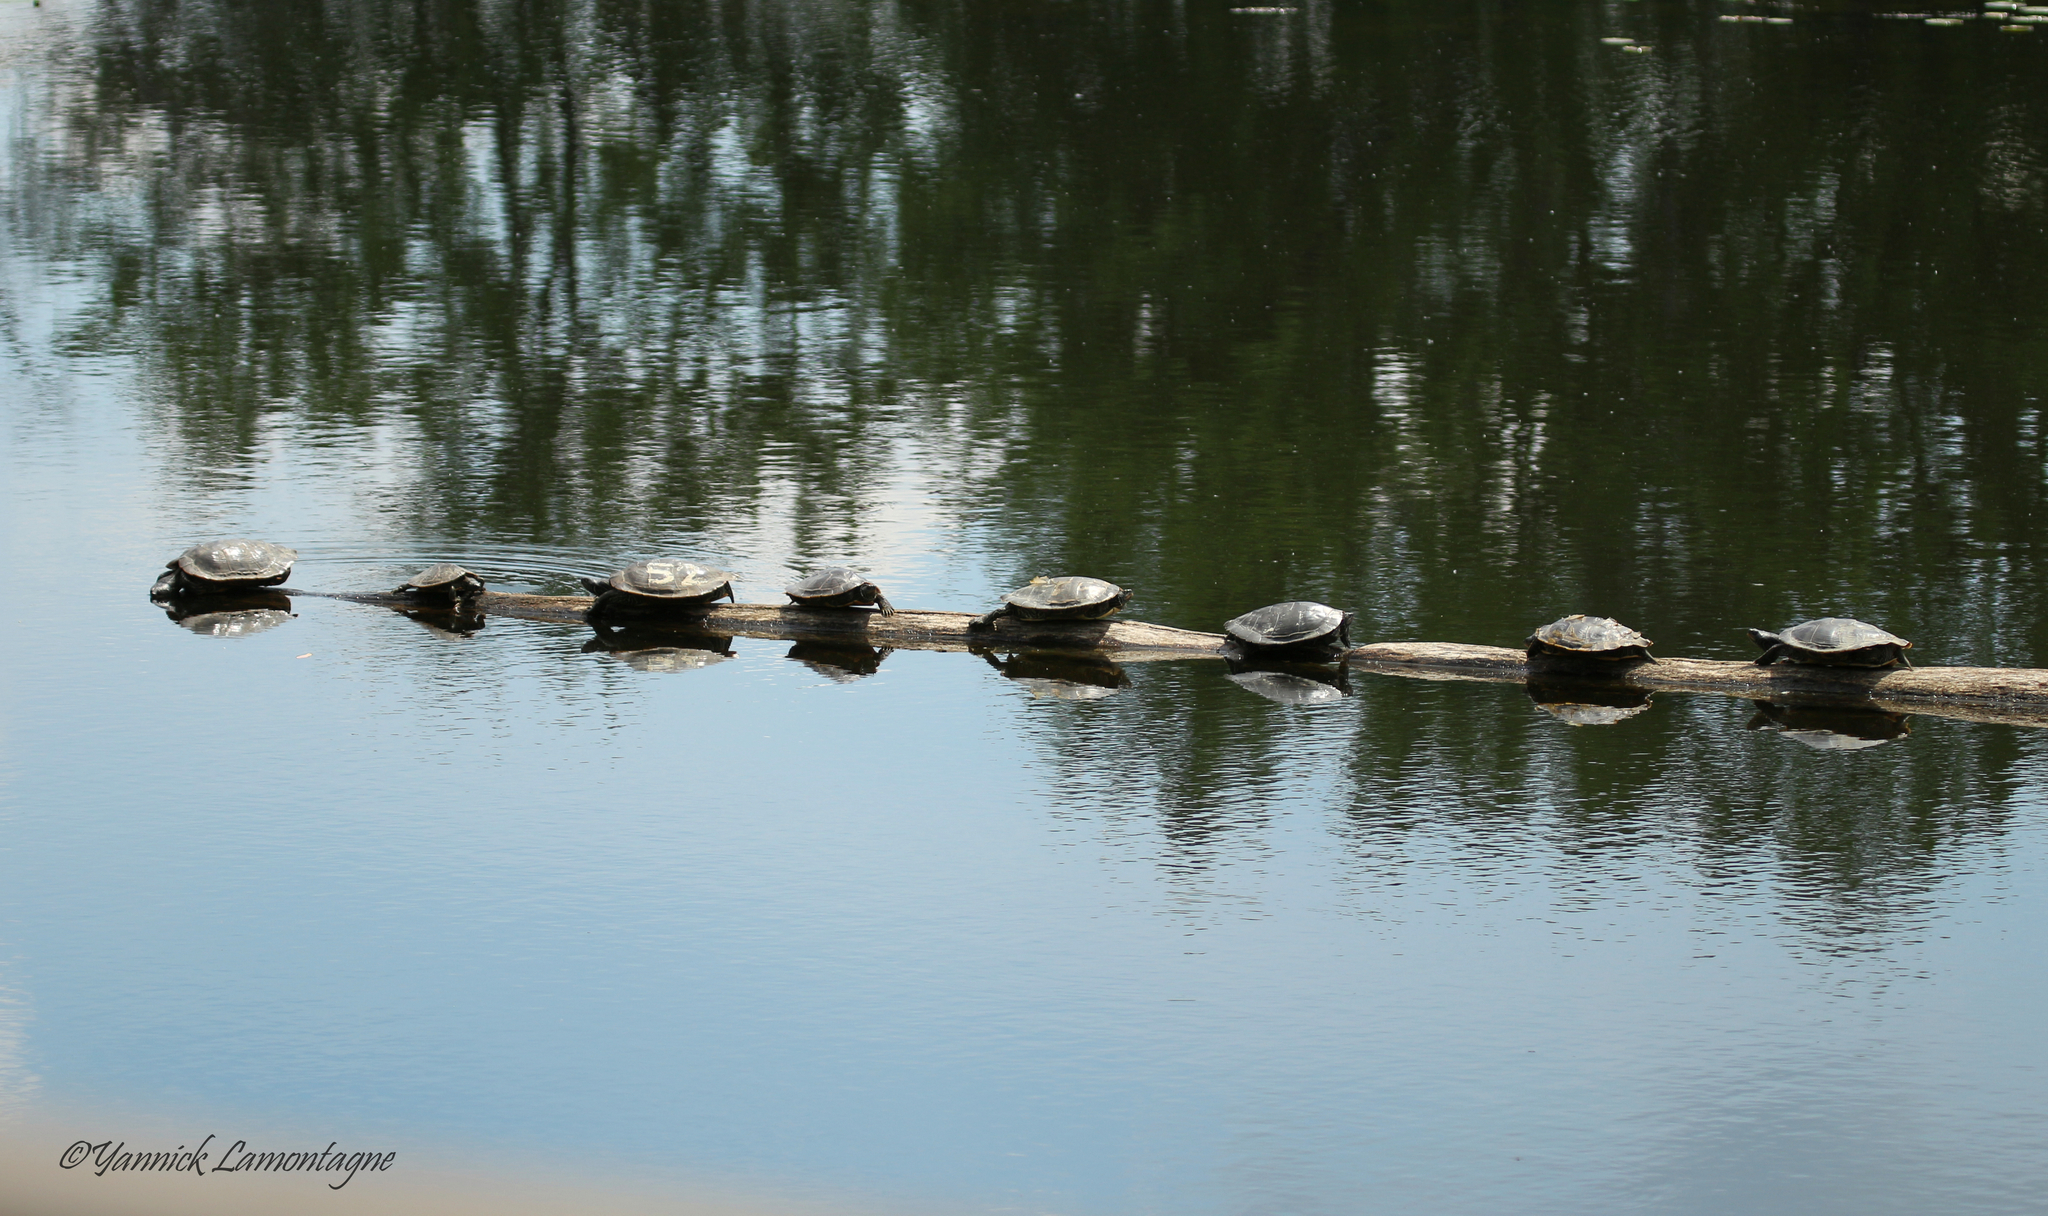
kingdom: Animalia
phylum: Chordata
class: Testudines
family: Emydidae
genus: Graptemys
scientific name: Graptemys geographica
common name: Common map turtle
